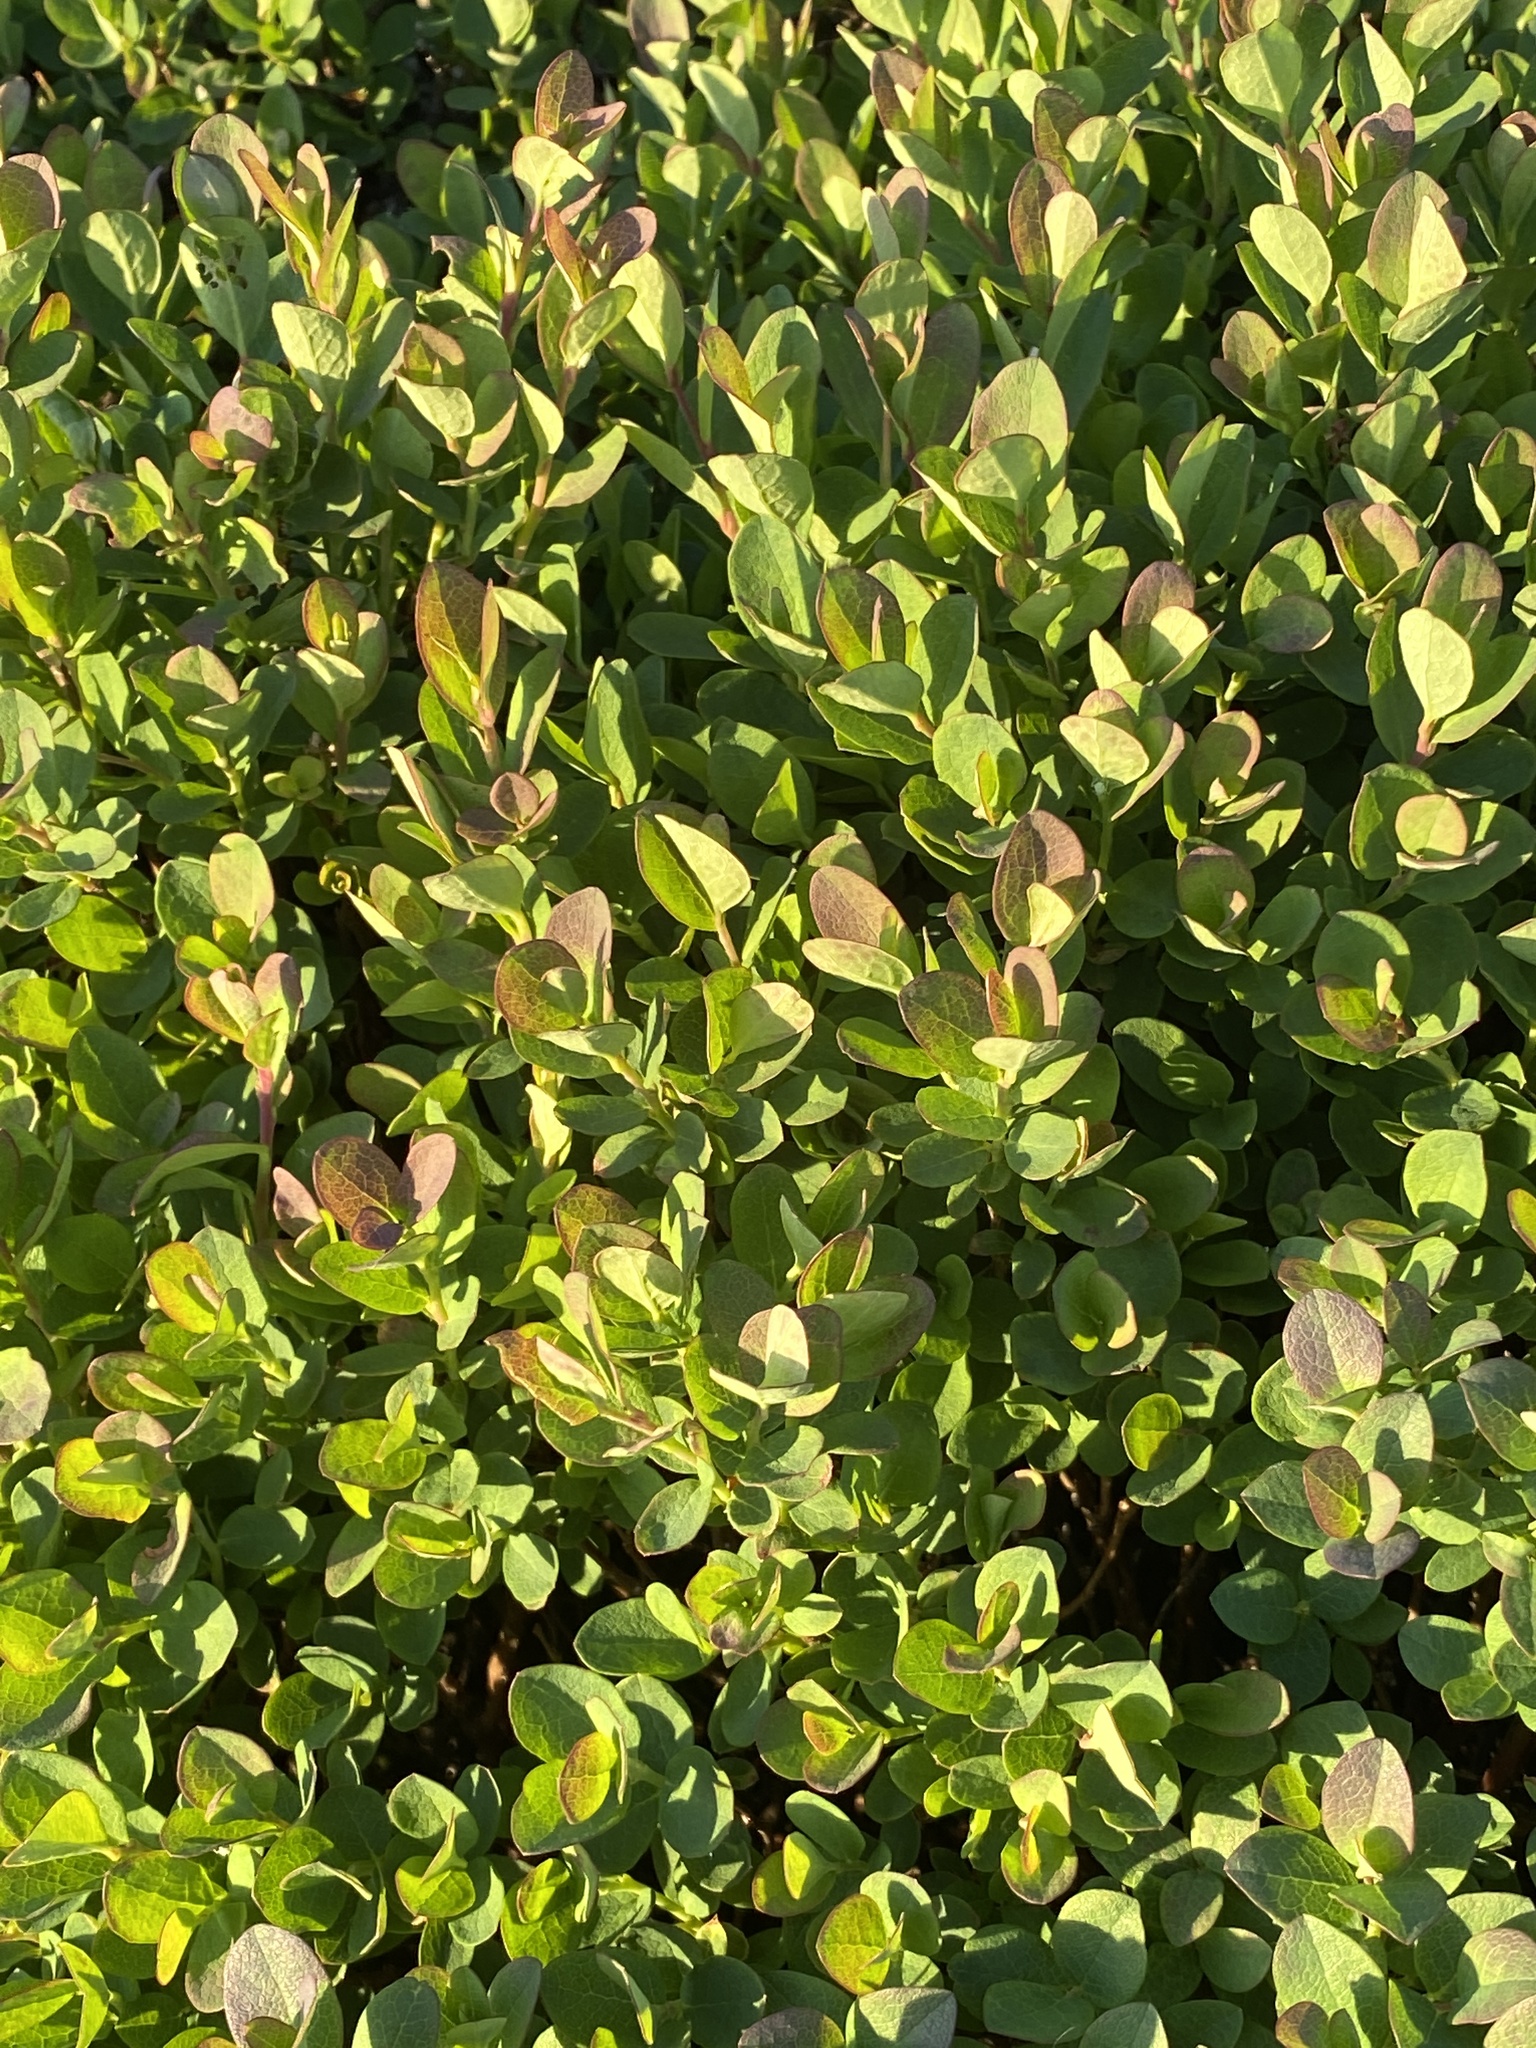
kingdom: Plantae
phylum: Tracheophyta
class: Magnoliopsida
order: Ericales
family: Ericaceae
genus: Vaccinium
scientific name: Vaccinium uliginosum
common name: Bog bilberry
